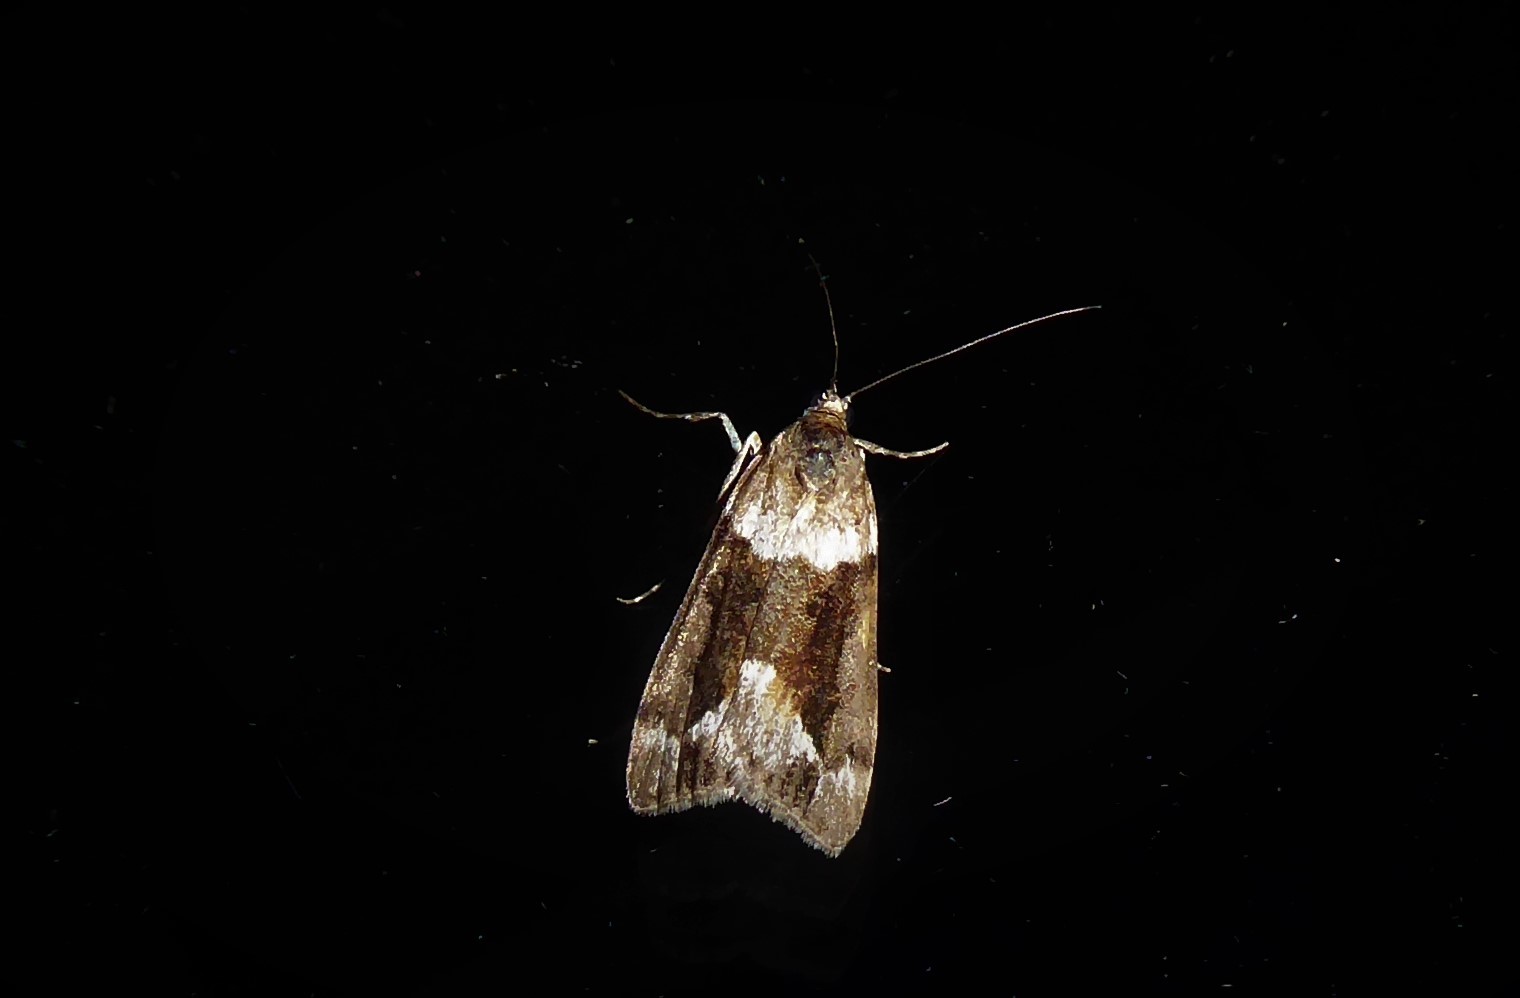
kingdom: Animalia
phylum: Arthropoda
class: Insecta
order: Lepidoptera
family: Crambidae
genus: Eudonia
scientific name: Eudonia submarginalis
